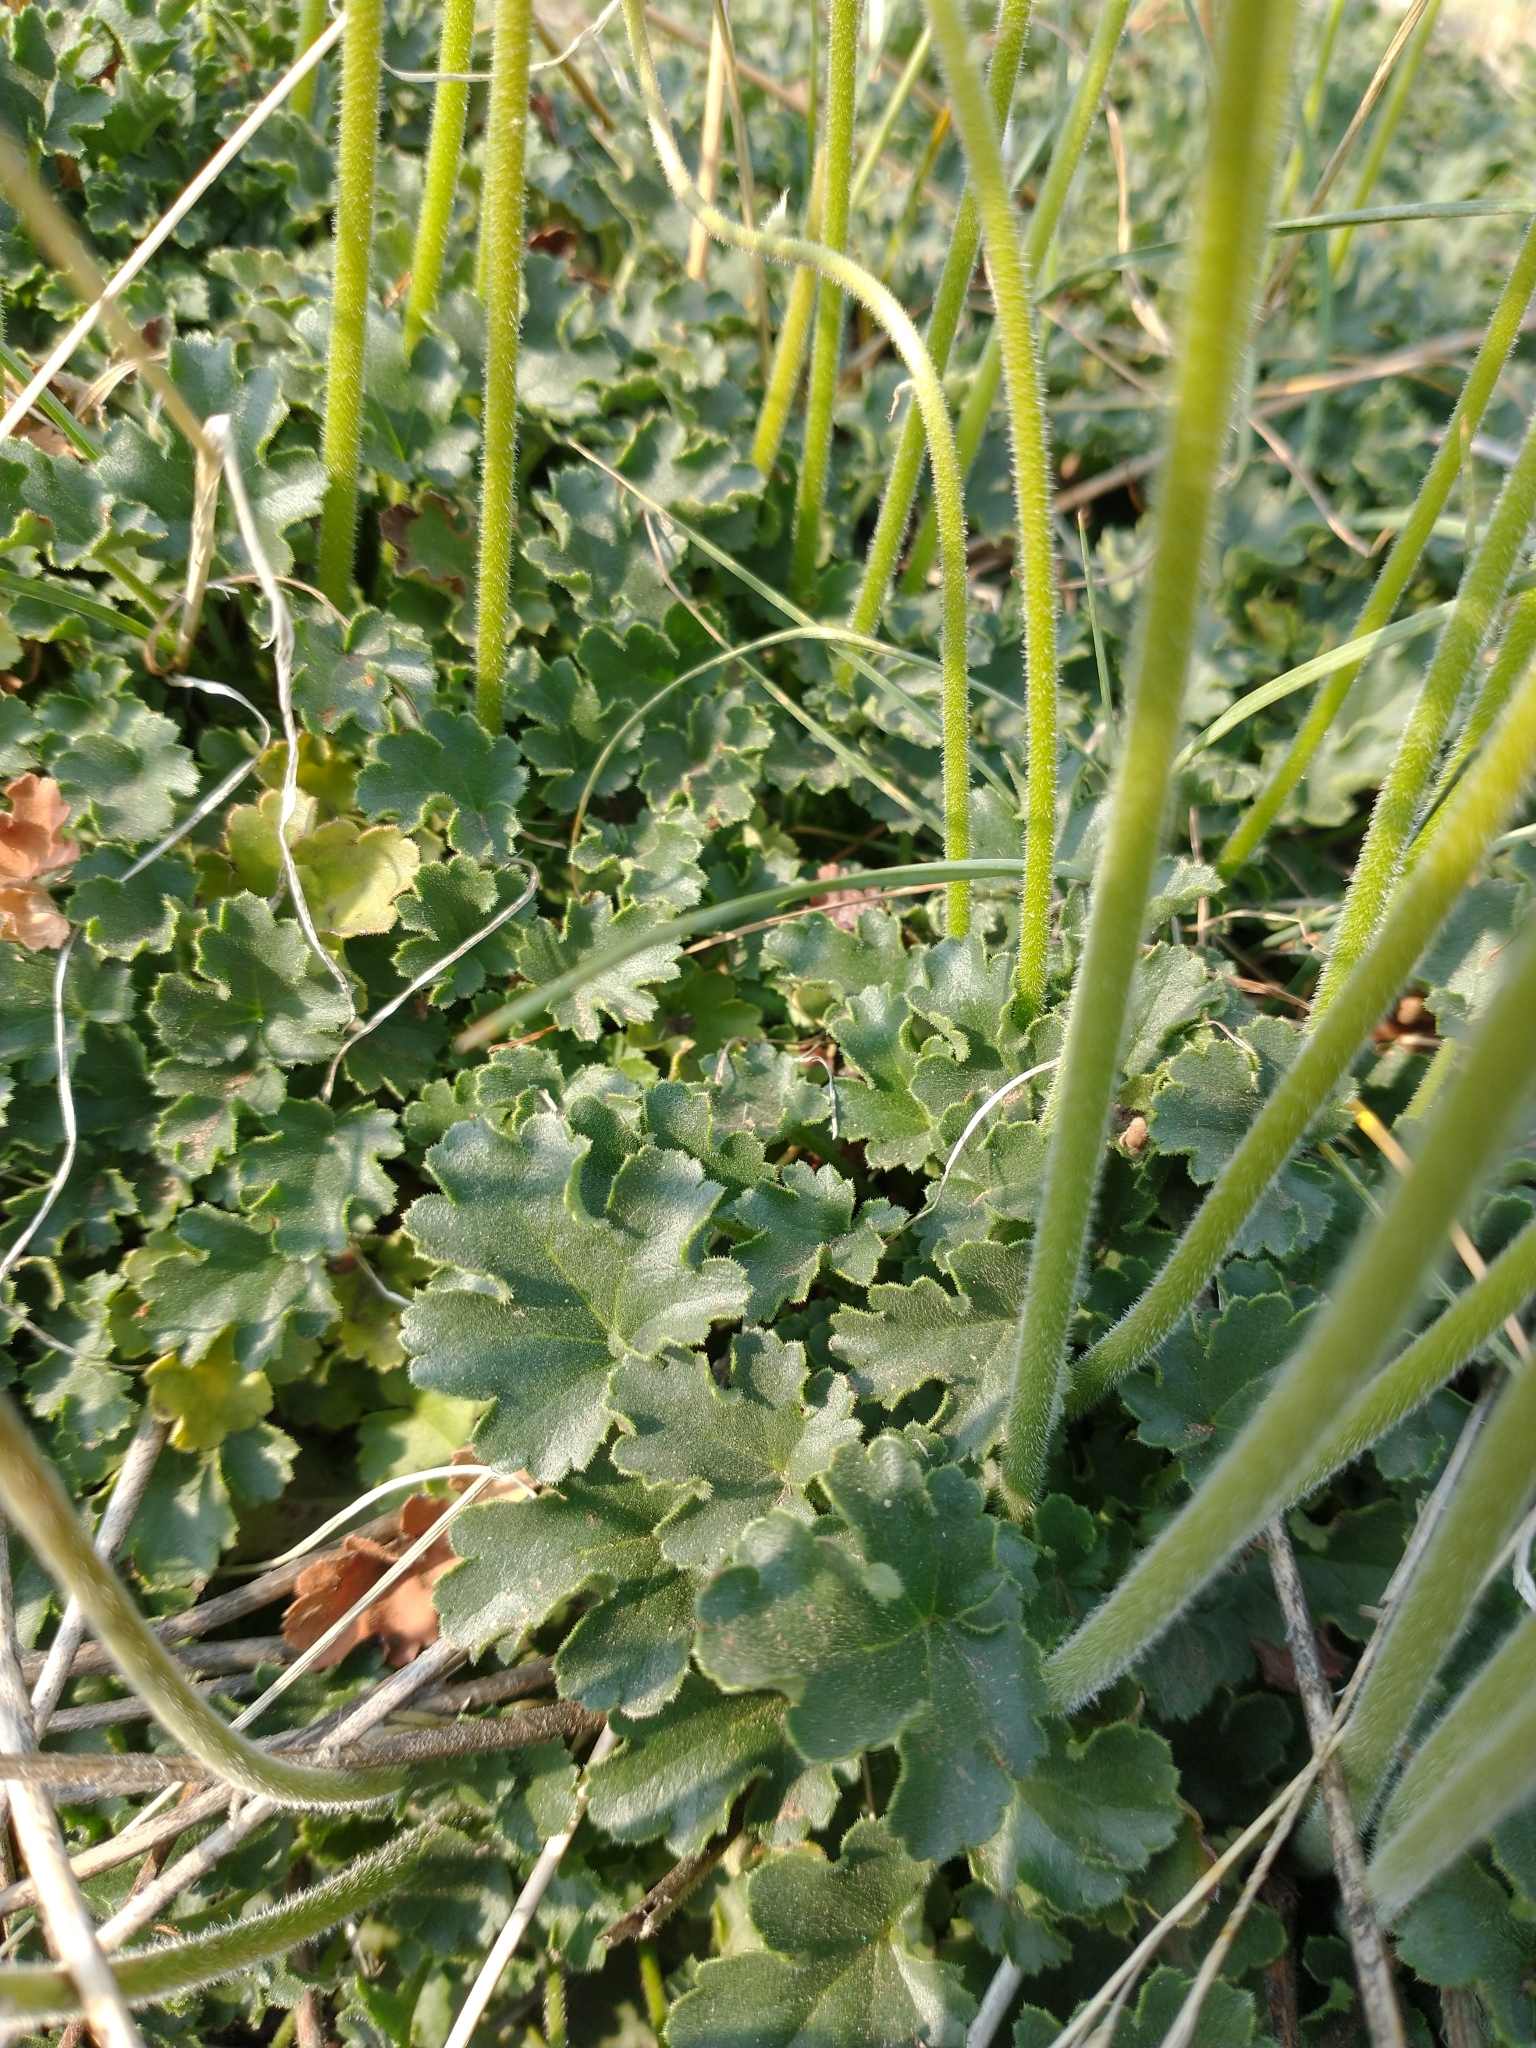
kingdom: Plantae
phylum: Tracheophyta
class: Magnoliopsida
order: Saxifragales
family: Saxifragaceae
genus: Heuchera
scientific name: Heuchera cylindrica
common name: Mat alumroot
